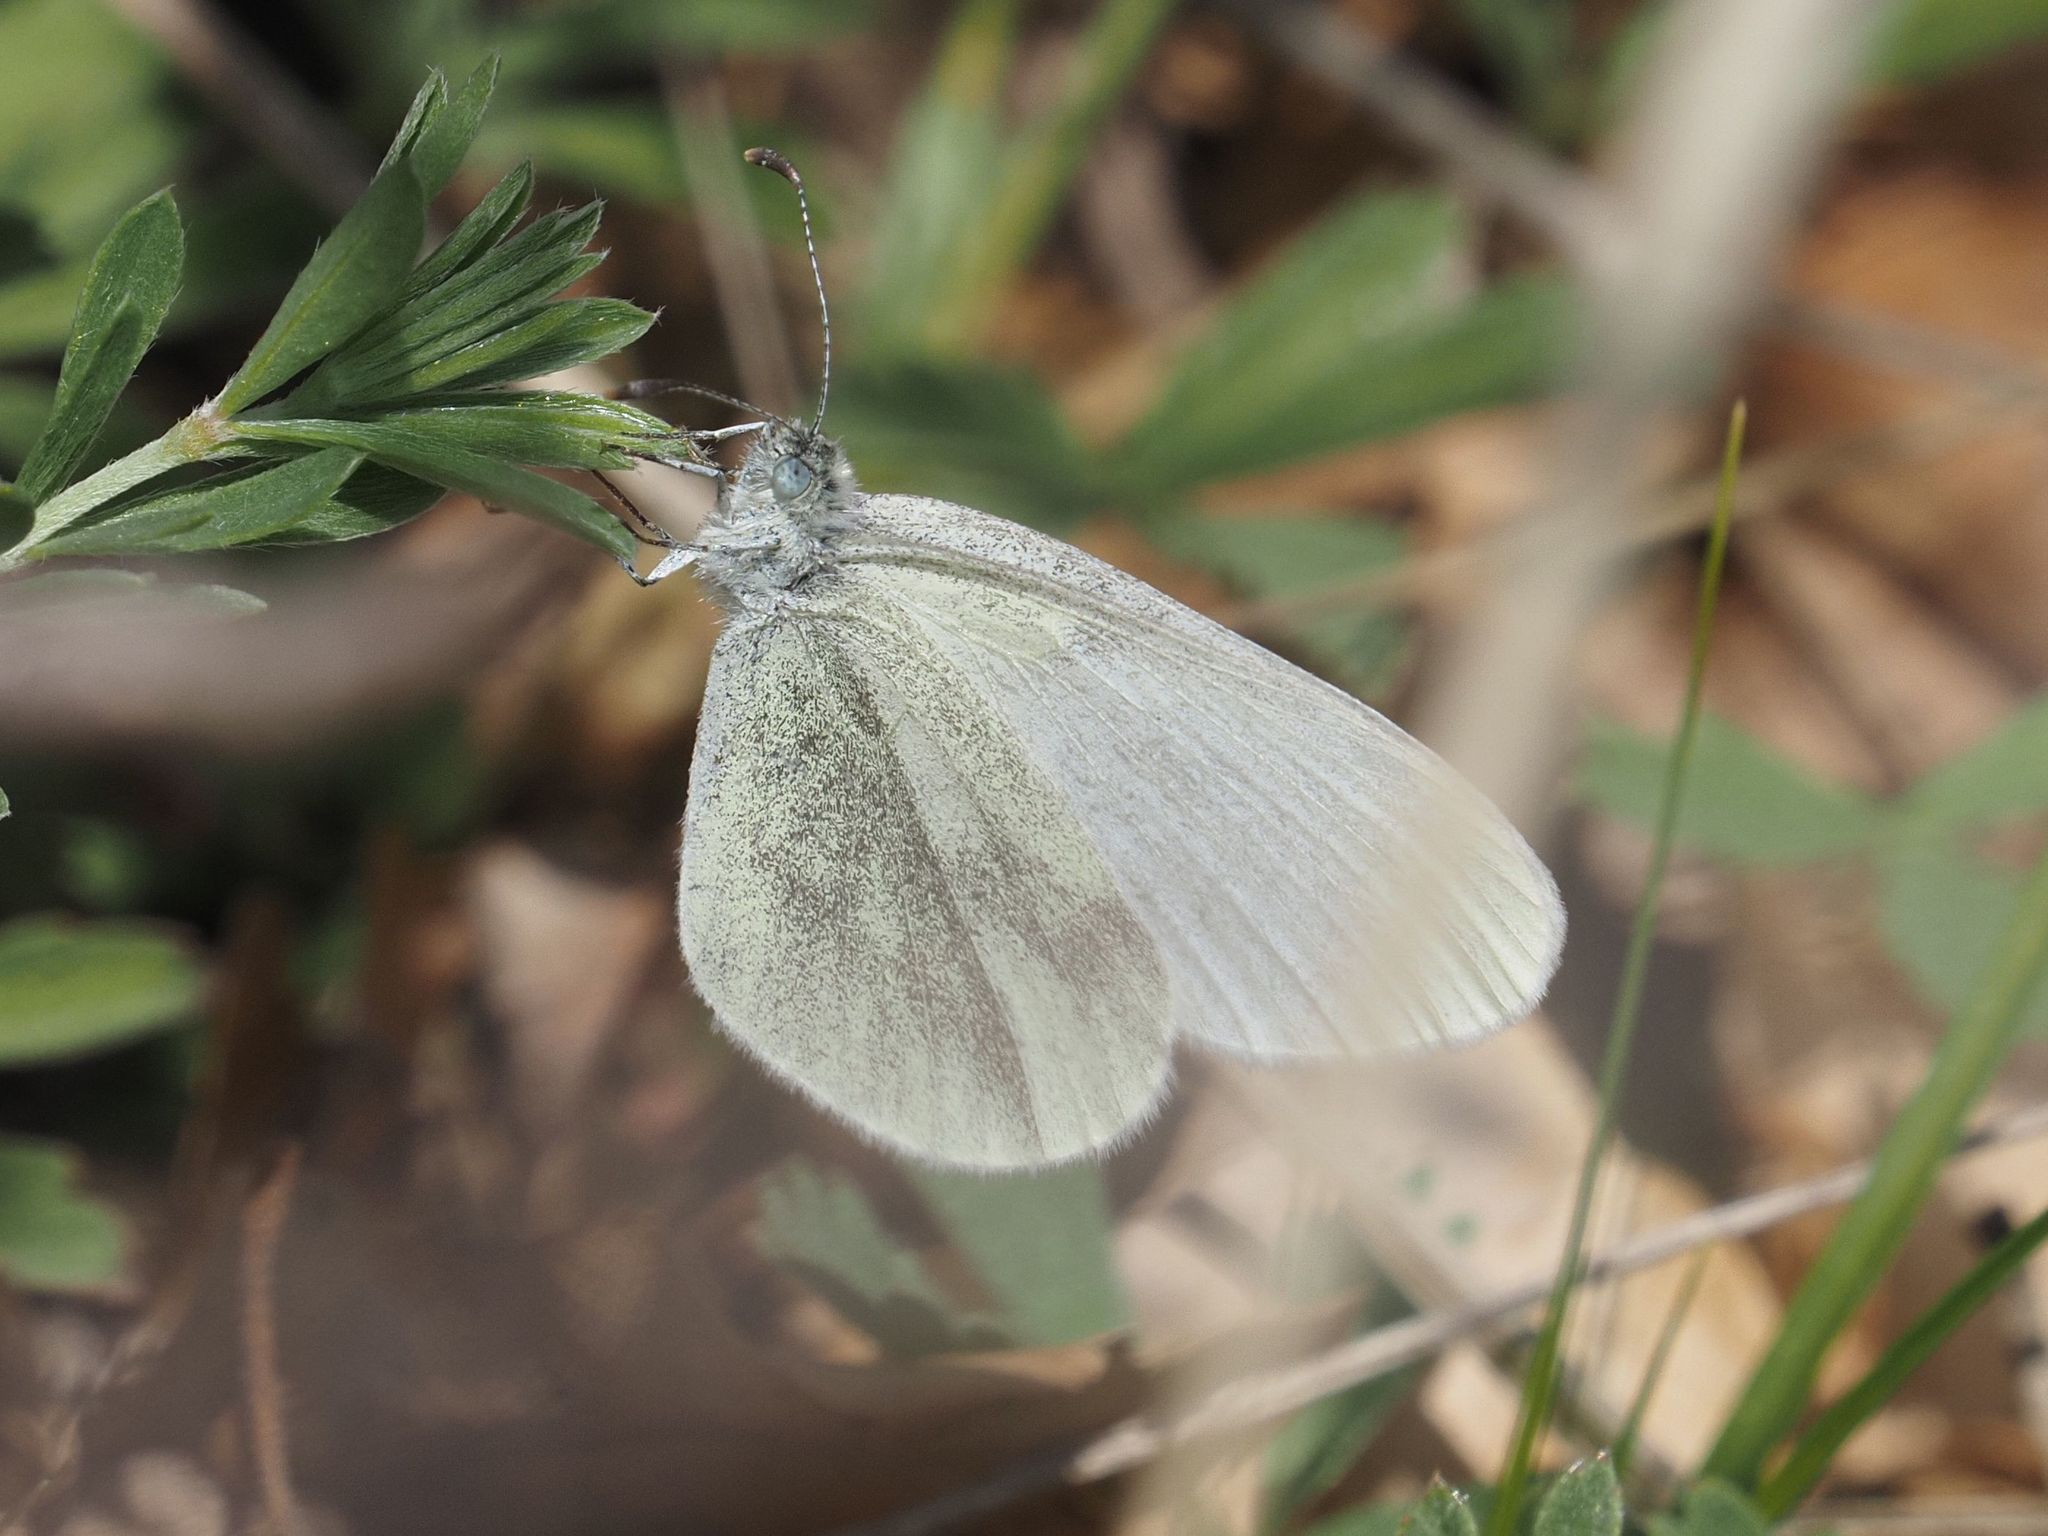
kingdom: Animalia
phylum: Arthropoda
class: Insecta
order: Lepidoptera
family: Pieridae
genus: Leptidea
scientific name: Leptidea
